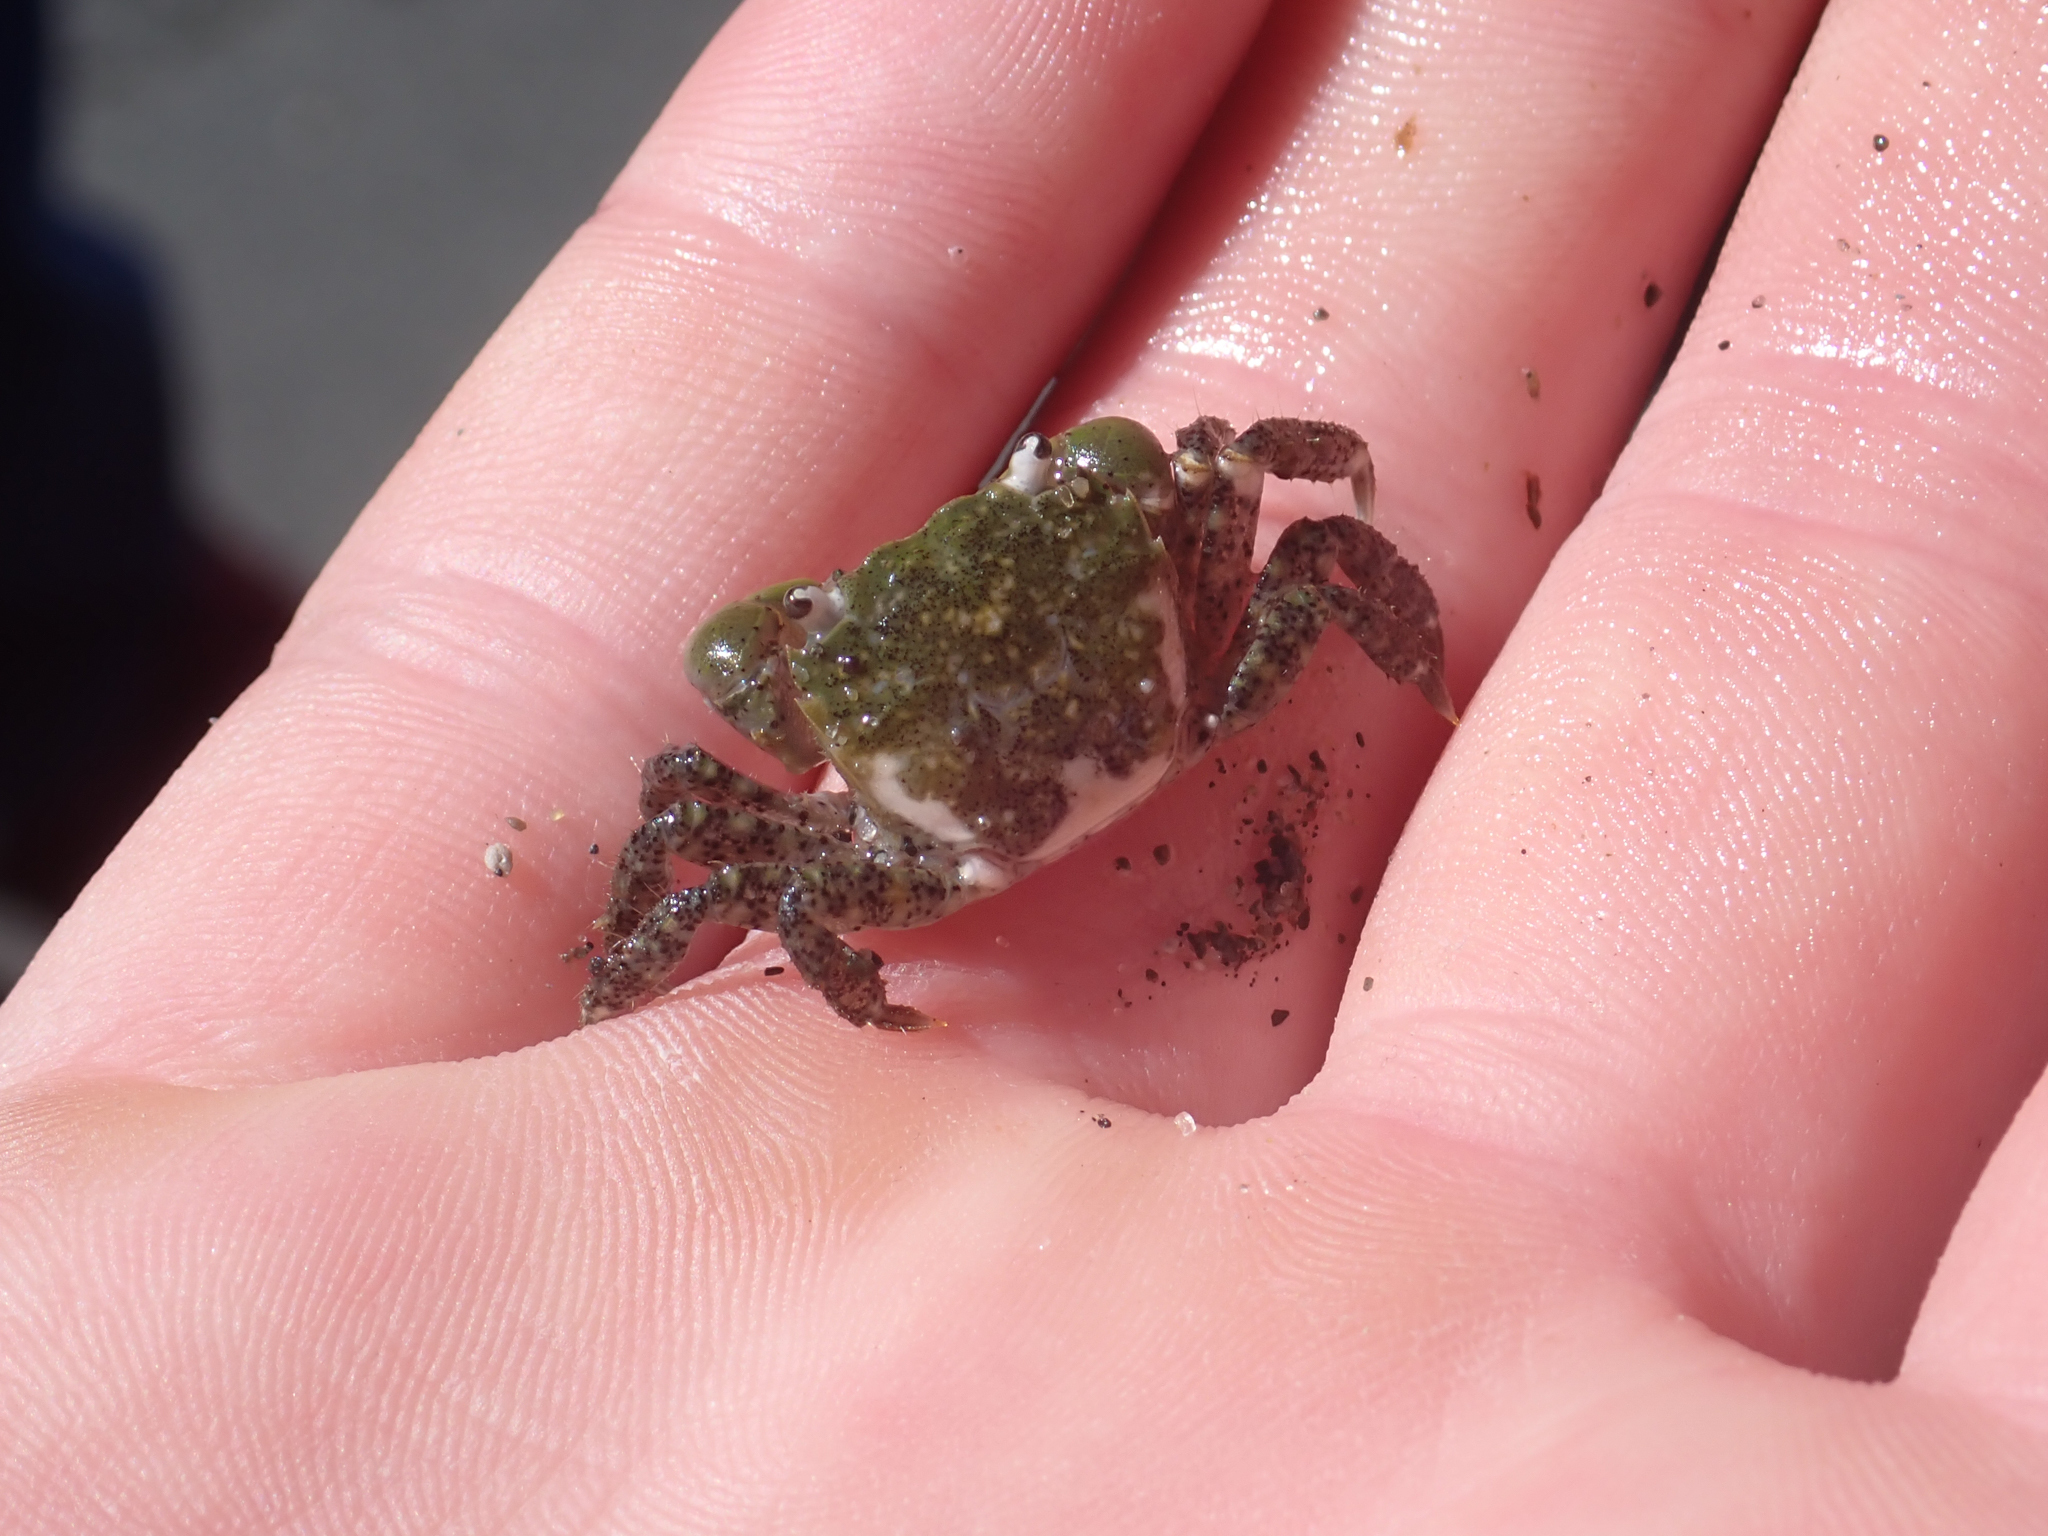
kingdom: Animalia
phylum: Arthropoda
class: Malacostraca
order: Decapoda
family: Varunidae
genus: Hemigrapsus
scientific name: Hemigrapsus oregonensis
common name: Yellow shore crab
